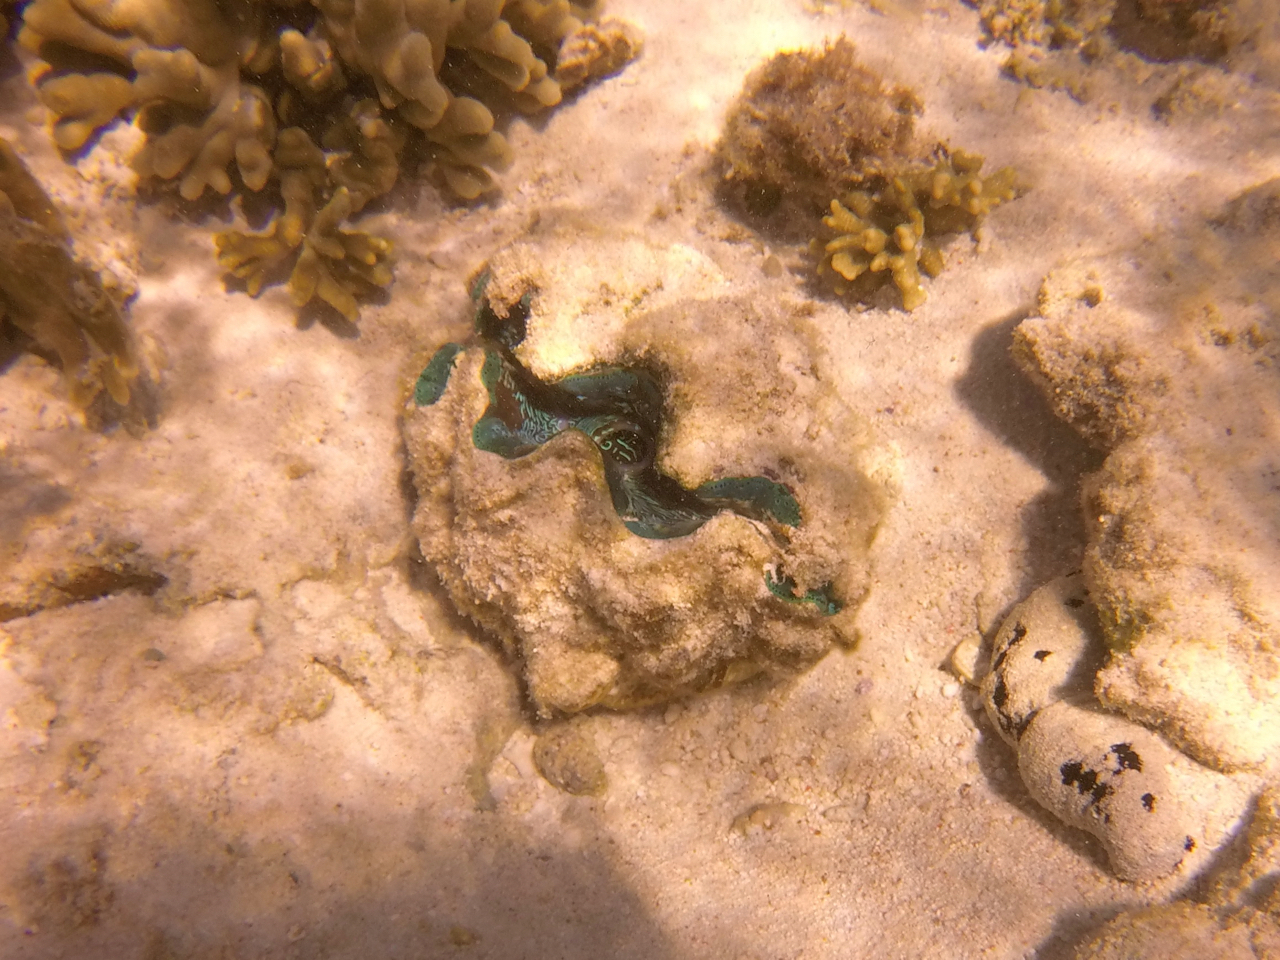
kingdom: Animalia
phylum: Mollusca
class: Bivalvia
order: Cardiida
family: Cardiidae
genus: Tridacna
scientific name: Tridacna derasa
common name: Southern giant clam
